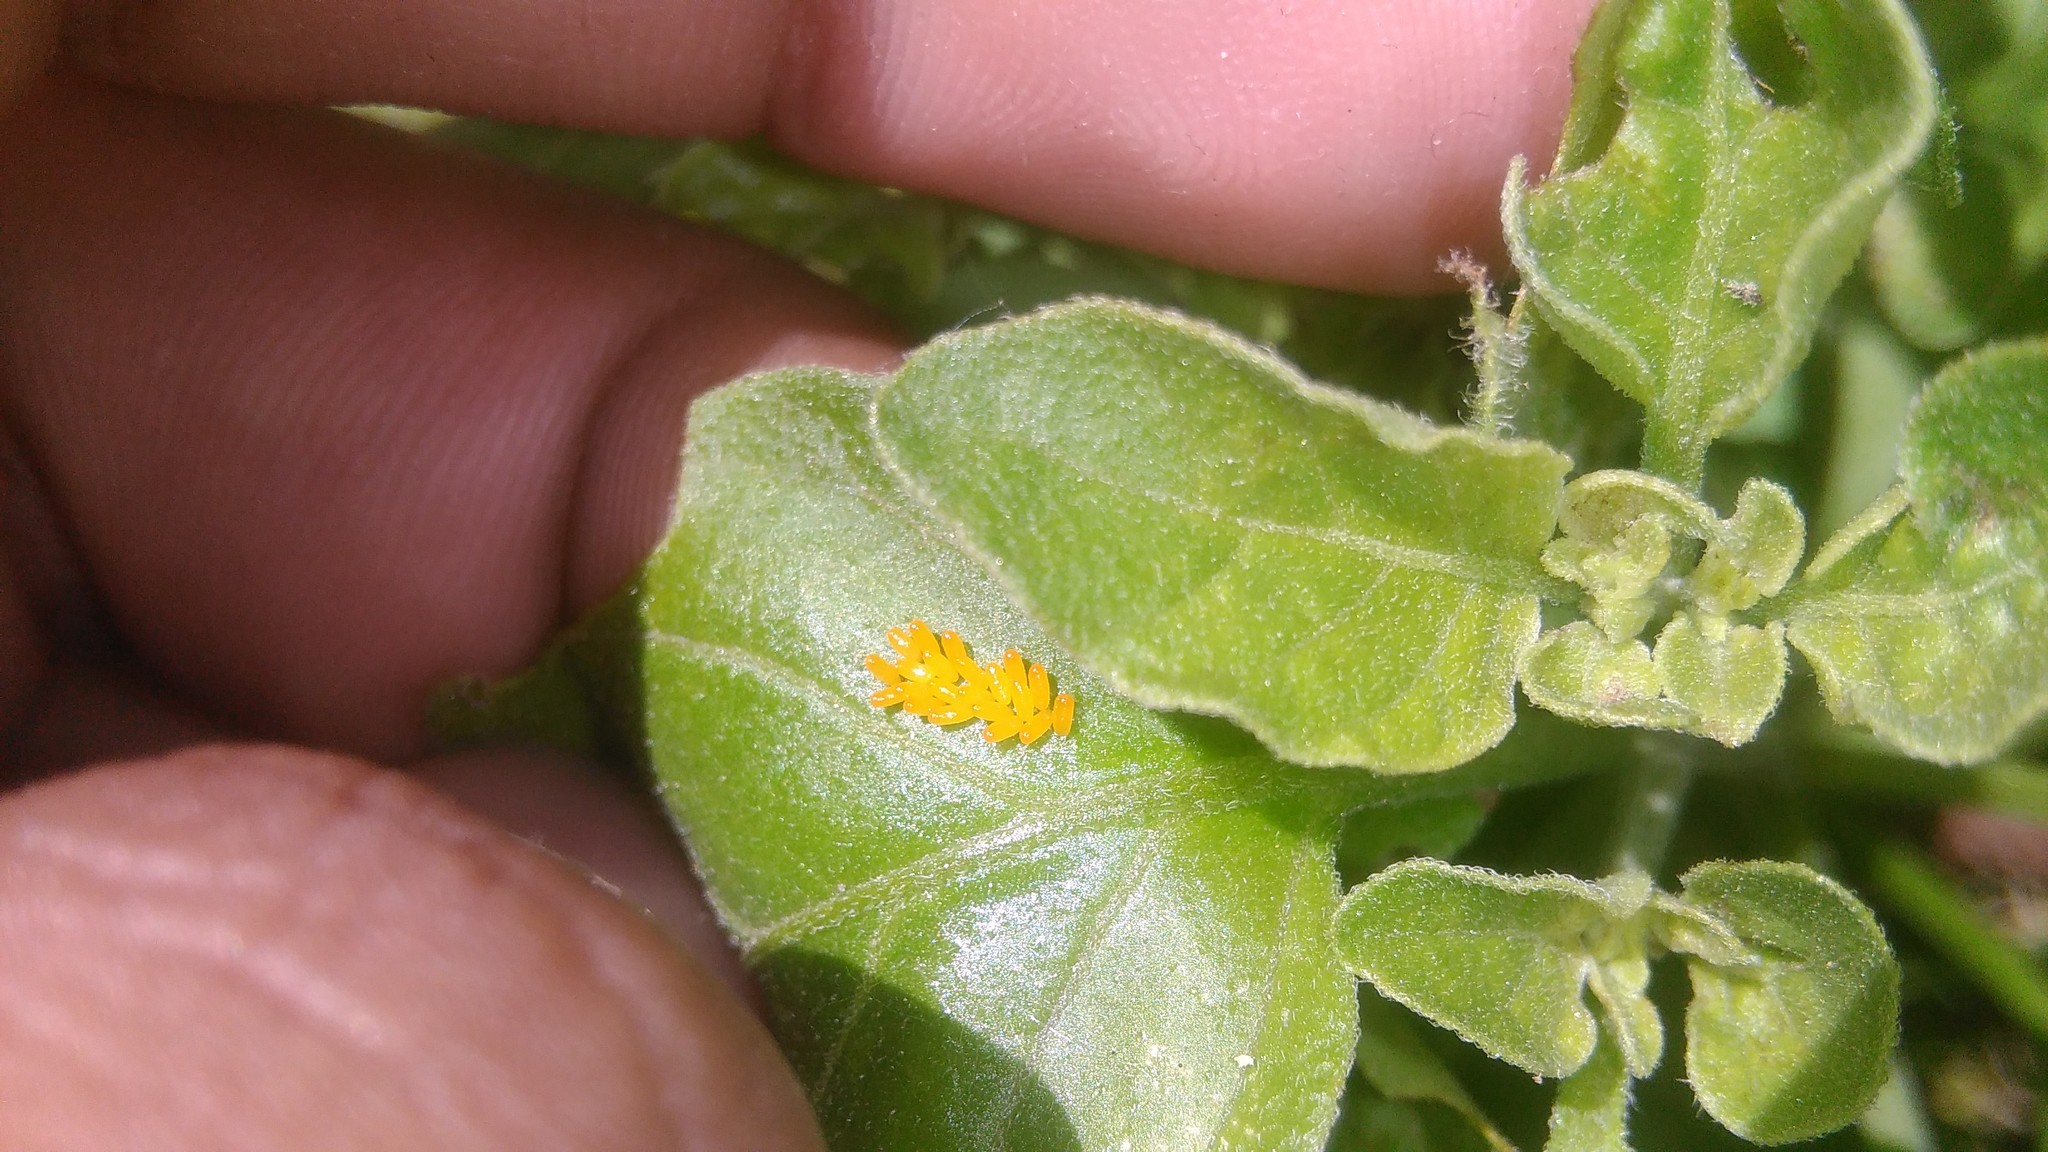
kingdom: Animalia
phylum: Arthropoda
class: Insecta
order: Coleoptera
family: Chrysomelidae
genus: Lema
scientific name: Lema bilineata
